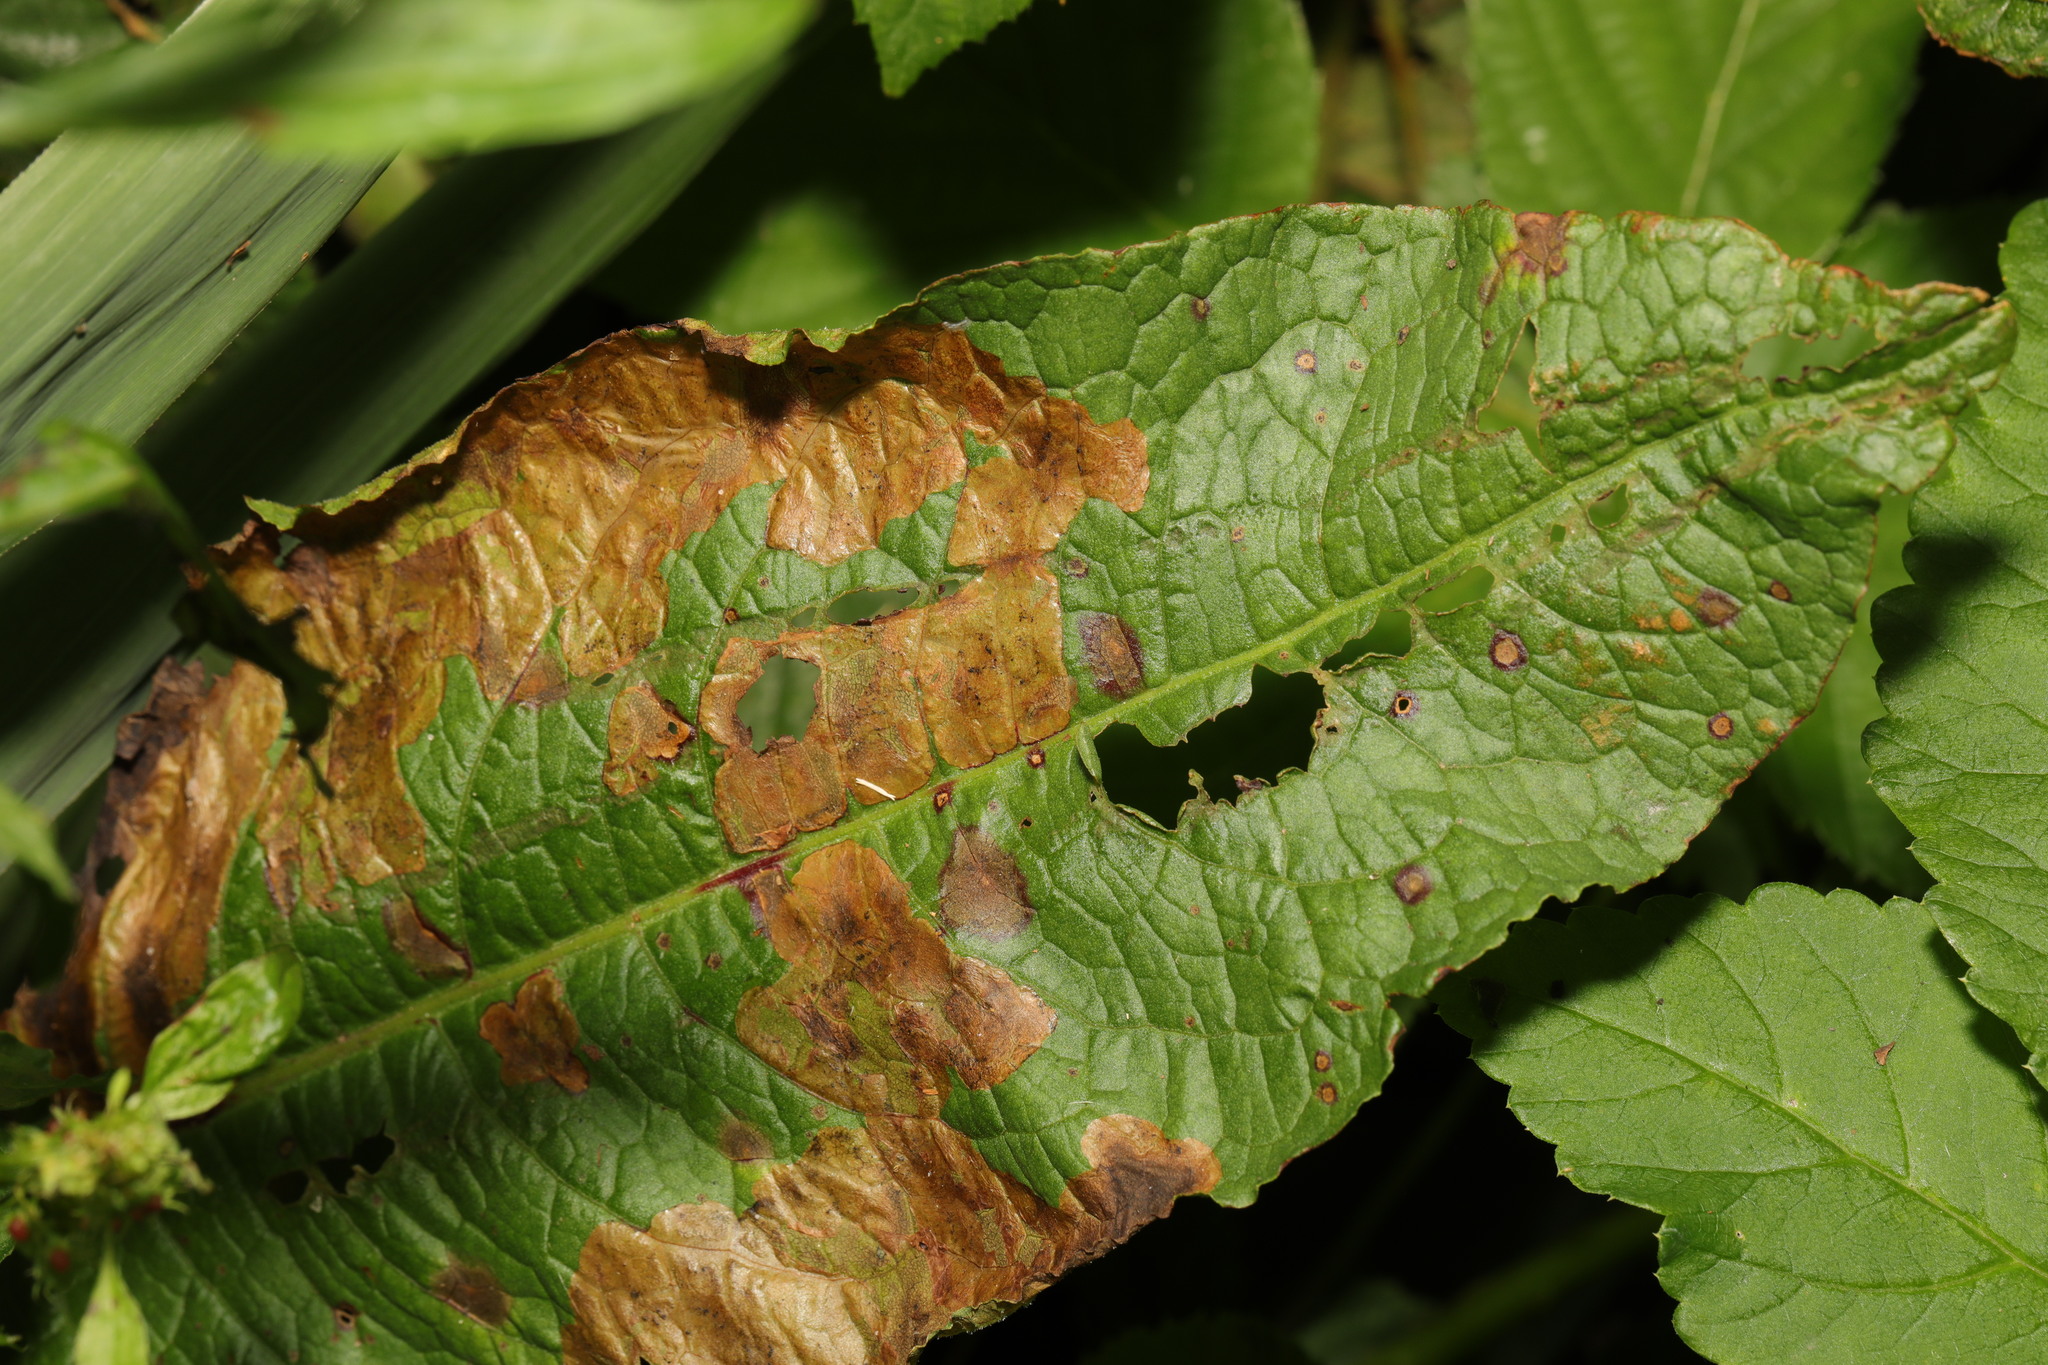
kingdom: Plantae
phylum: Tracheophyta
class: Magnoliopsida
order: Caryophyllales
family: Polygonaceae
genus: Rumex
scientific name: Rumex obtusifolius
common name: Bitter dock
